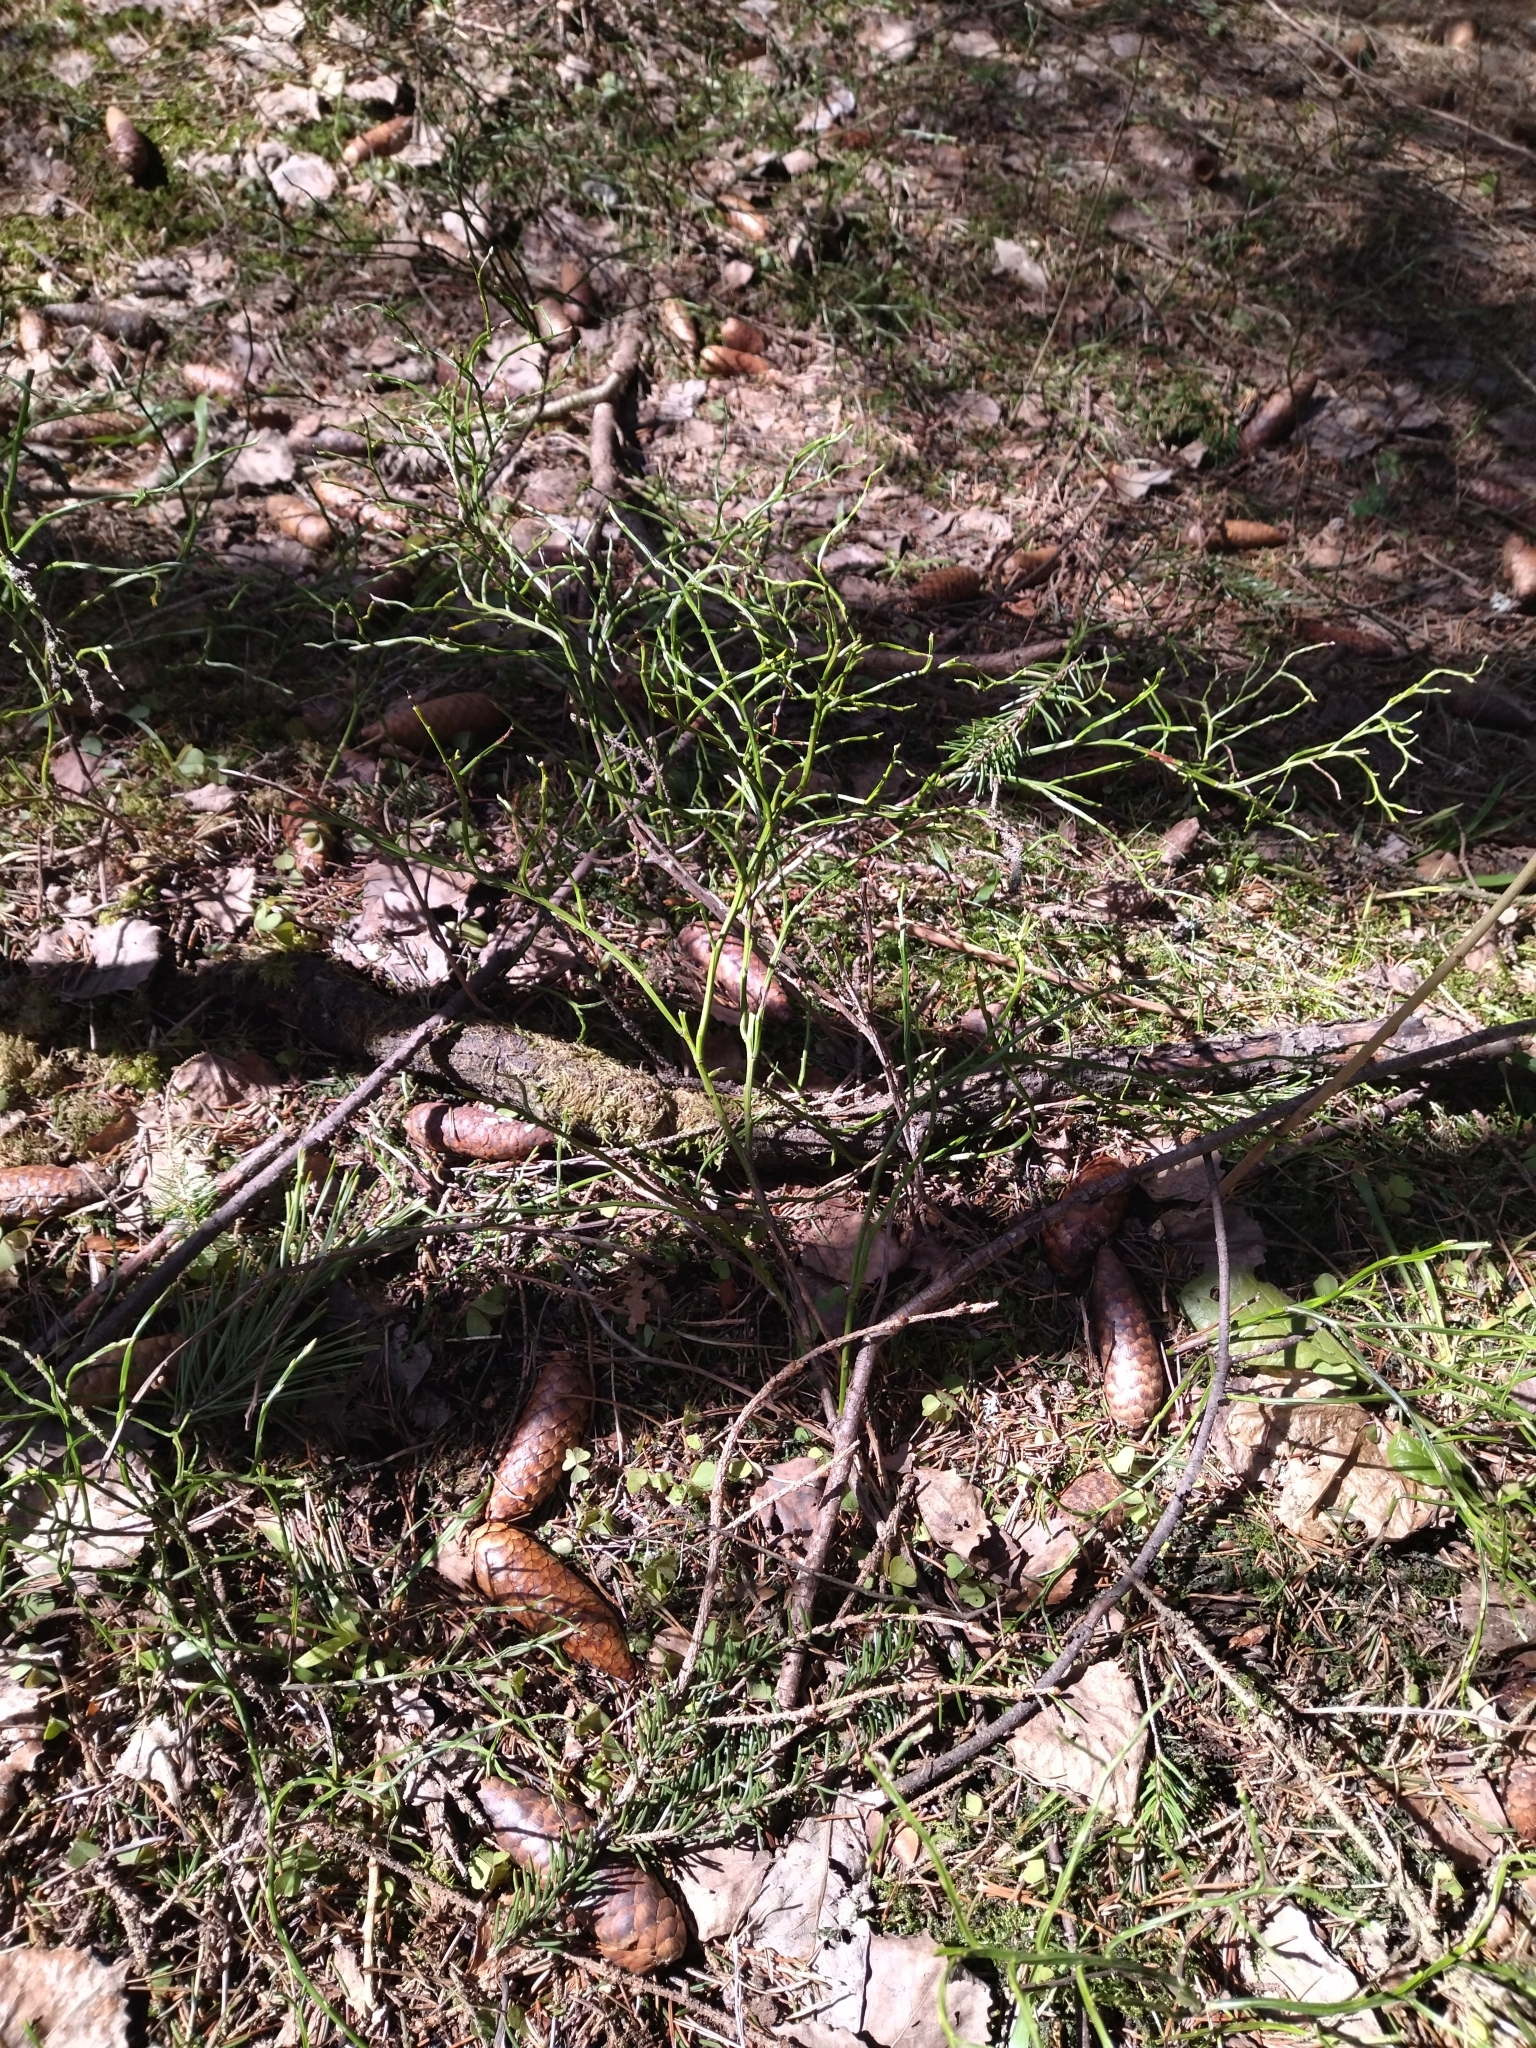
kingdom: Plantae
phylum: Tracheophyta
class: Magnoliopsida
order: Ericales
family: Ericaceae
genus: Vaccinium
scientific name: Vaccinium myrtillus
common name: Bilberry
